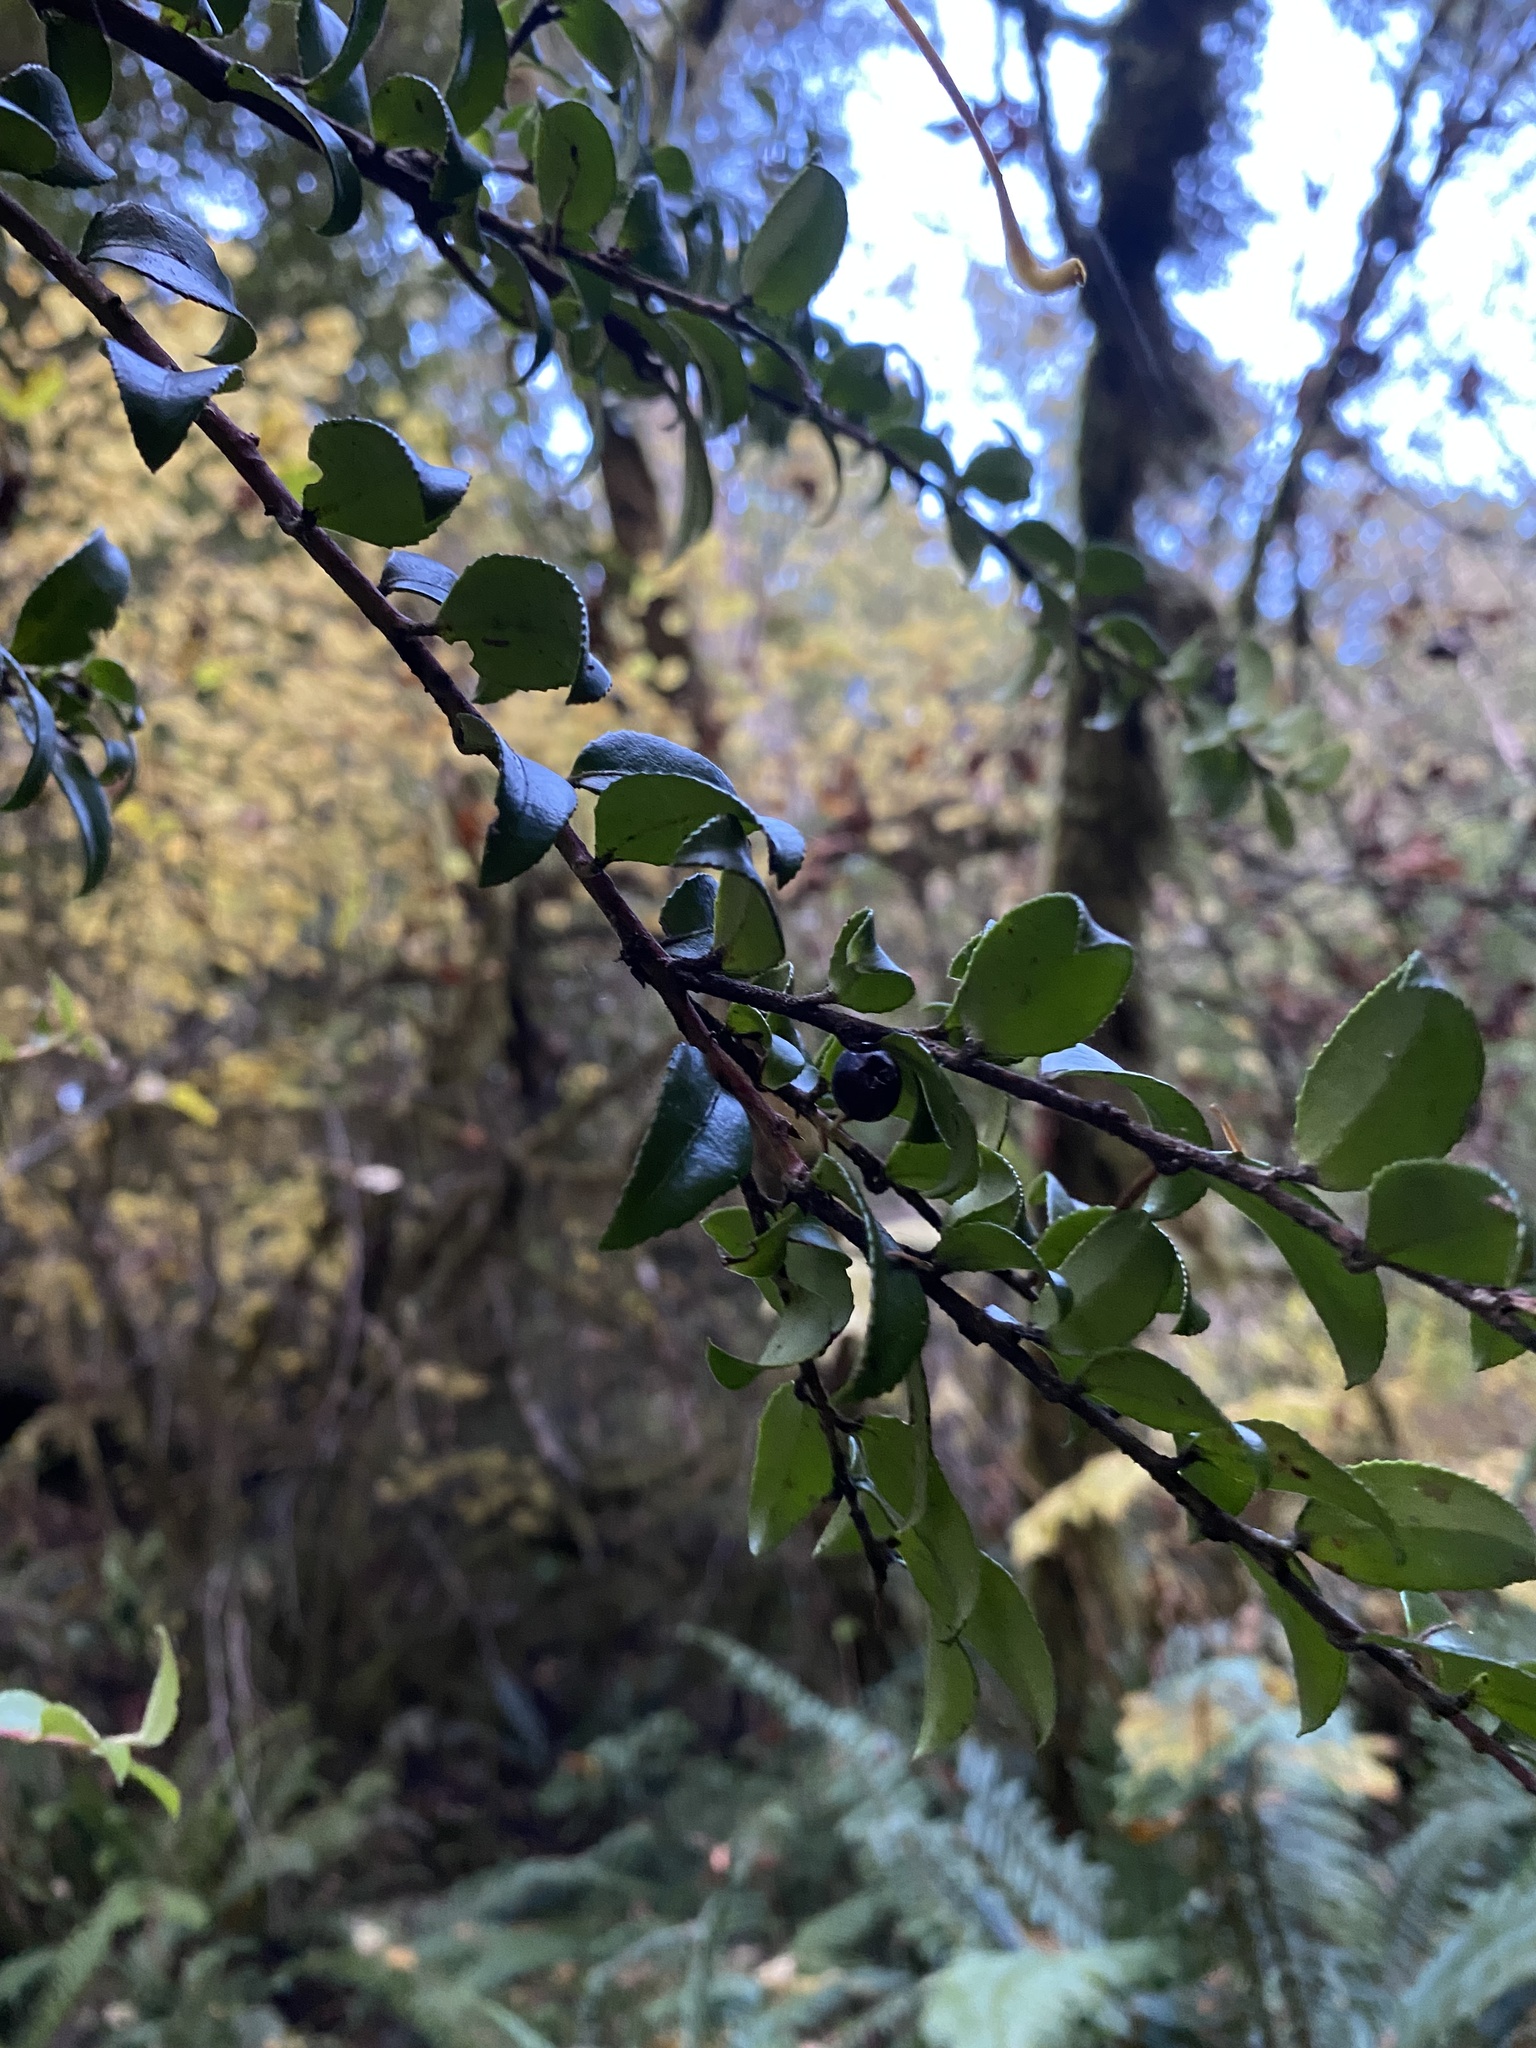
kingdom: Plantae
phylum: Tracheophyta
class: Magnoliopsida
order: Ericales
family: Ericaceae
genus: Vaccinium
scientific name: Vaccinium ovatum
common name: California-huckleberry
